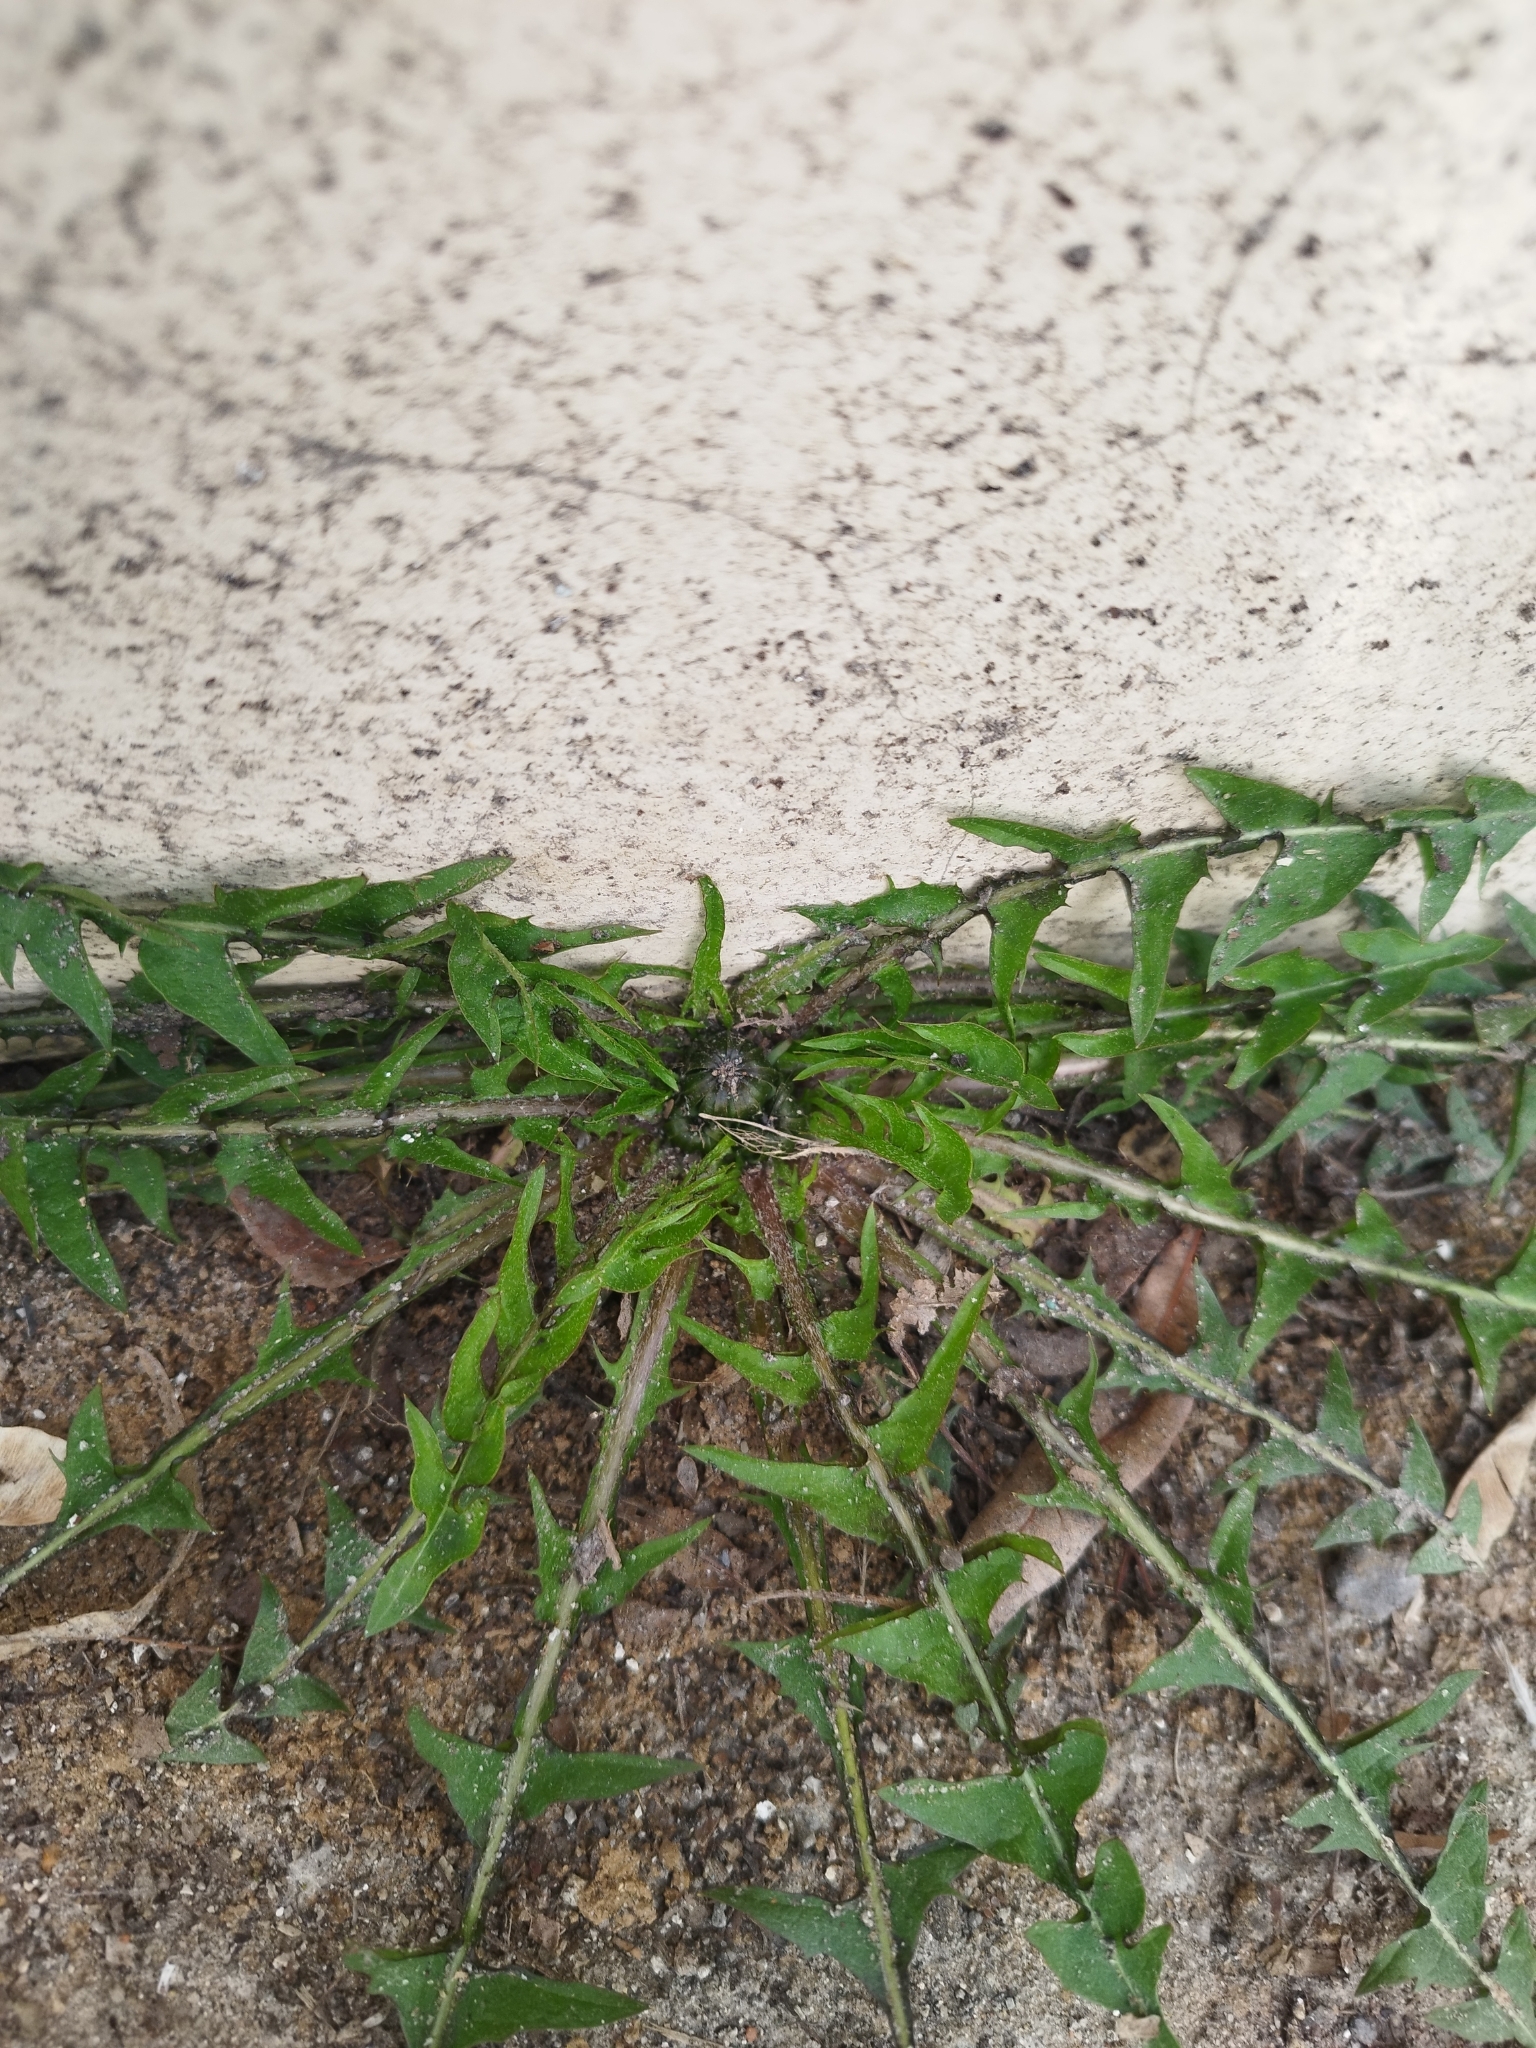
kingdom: Plantae
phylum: Tracheophyta
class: Magnoliopsida
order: Asterales
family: Asteraceae
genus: Taraxacum
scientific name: Taraxacum officinale
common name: Common dandelion
